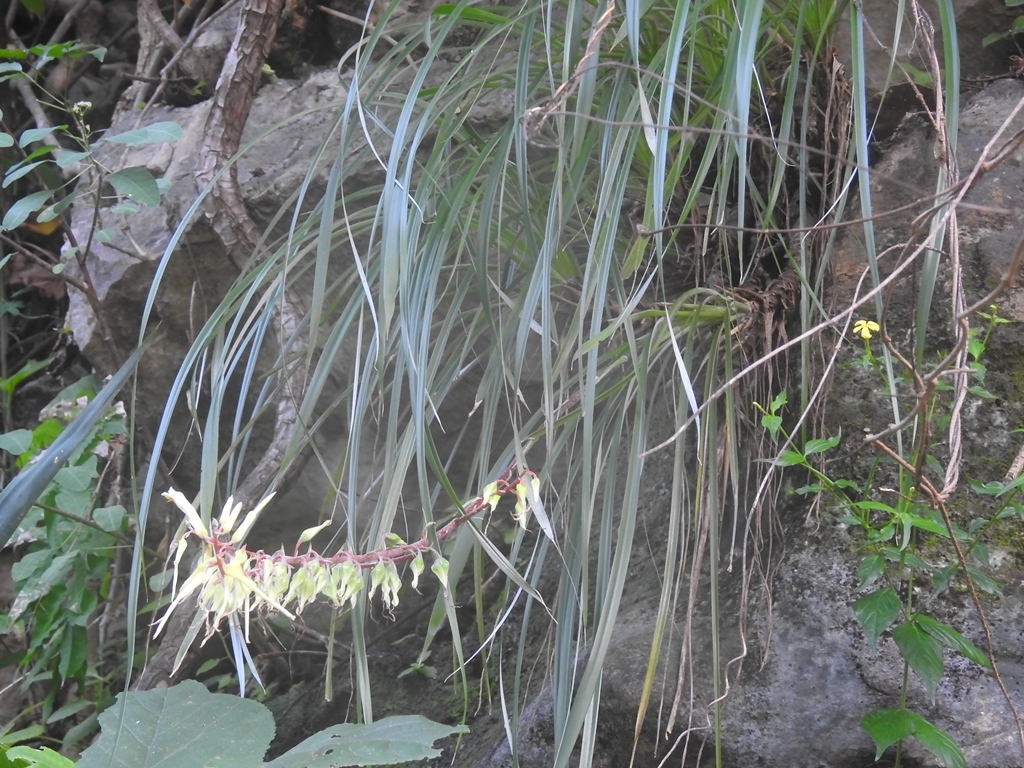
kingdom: Plantae
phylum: Tracheophyta
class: Liliopsida
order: Poales
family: Bromeliaceae
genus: Pitcairnia
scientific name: Pitcairnia breedlovei
